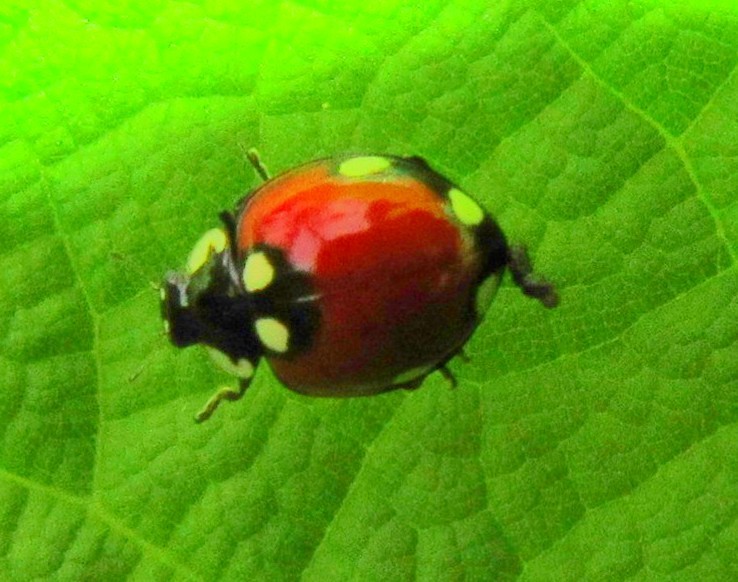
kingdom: Animalia
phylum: Arthropoda
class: Insecta
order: Coleoptera
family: Coccinellidae
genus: Cycloneda
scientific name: Cycloneda
